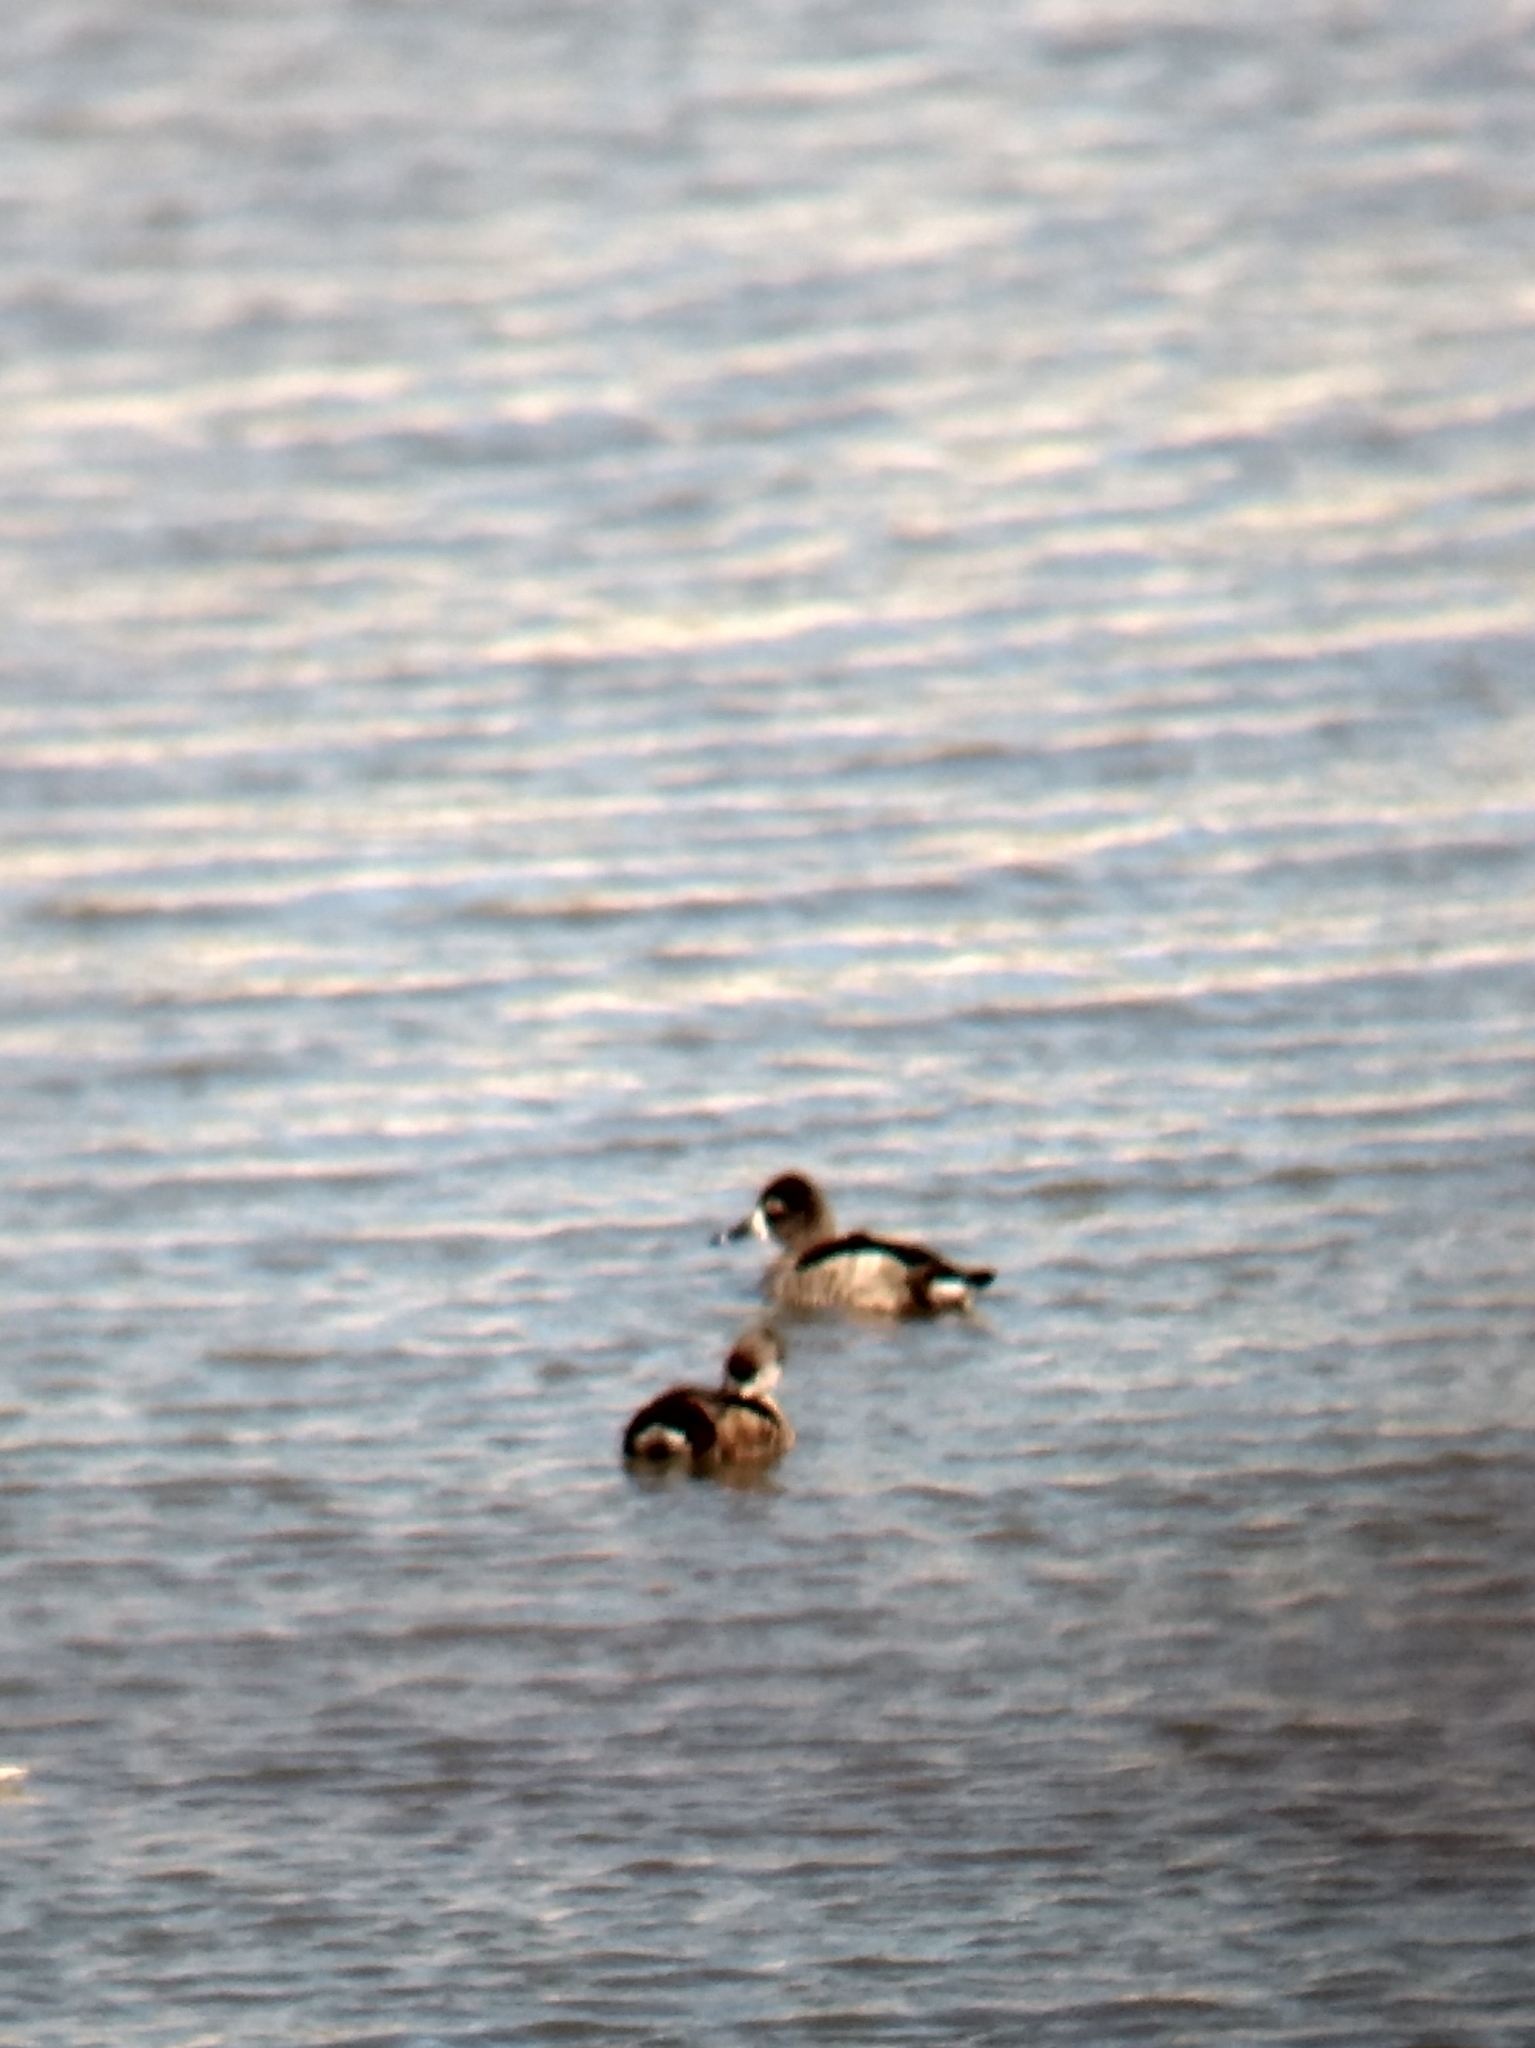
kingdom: Animalia
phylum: Chordata
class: Aves
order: Anseriformes
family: Anatidae
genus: Aythya
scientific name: Aythya collaris
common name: Ring-necked duck
